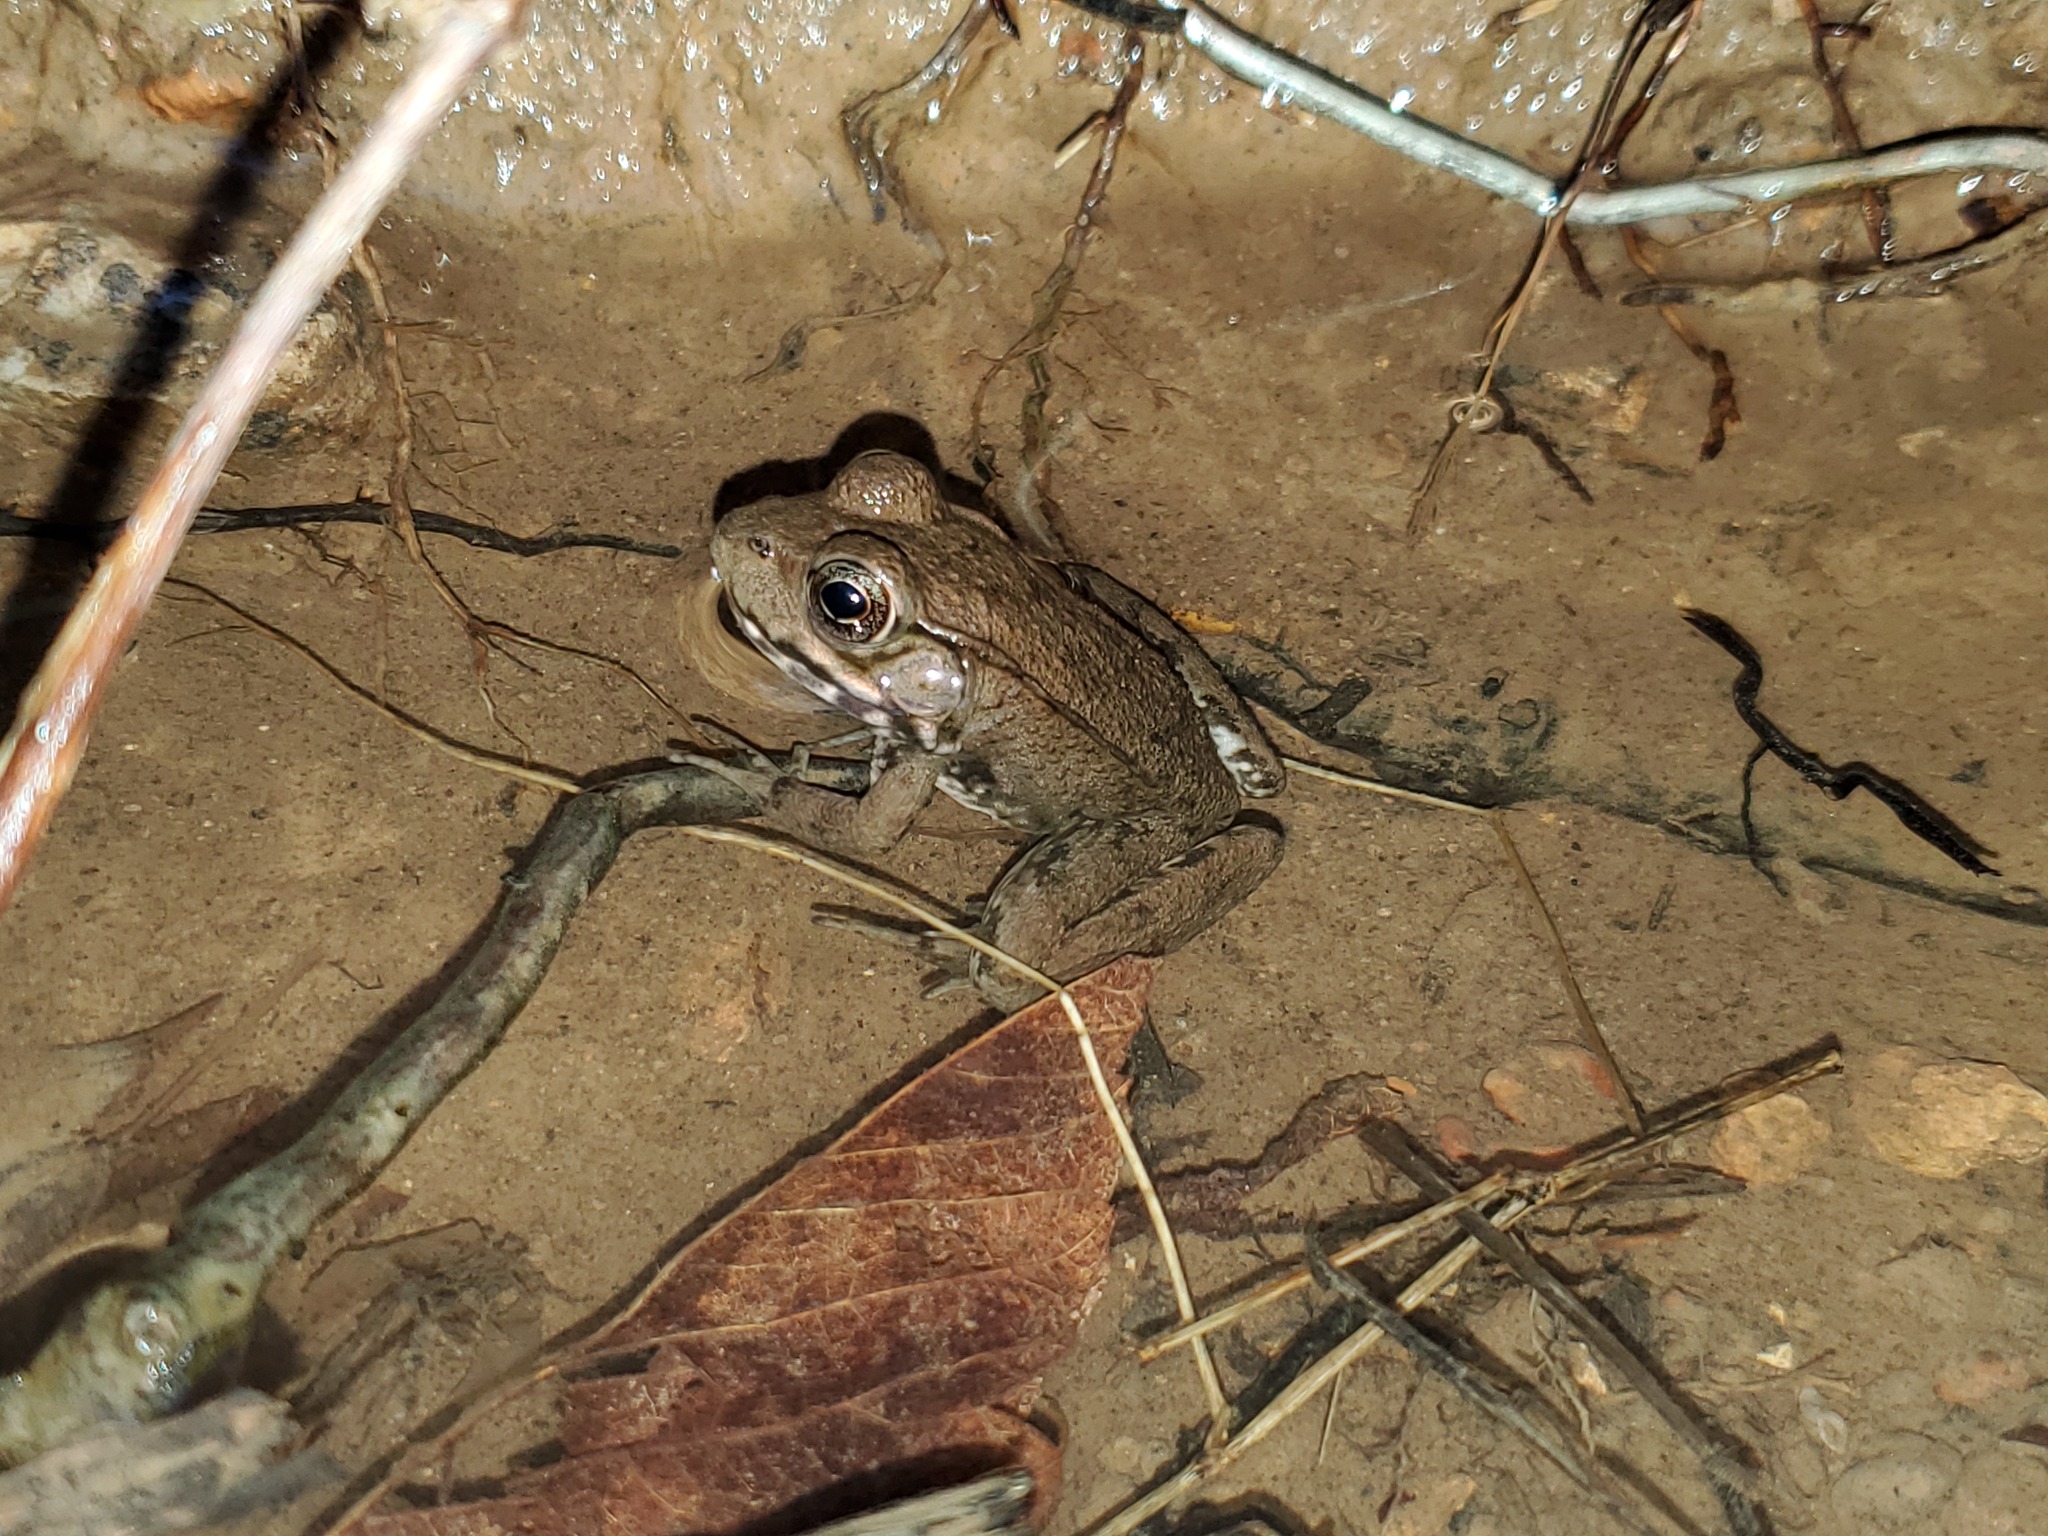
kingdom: Animalia
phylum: Chordata
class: Amphibia
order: Anura
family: Ranidae
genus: Lithobates
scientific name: Lithobates clamitans
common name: Green frog
